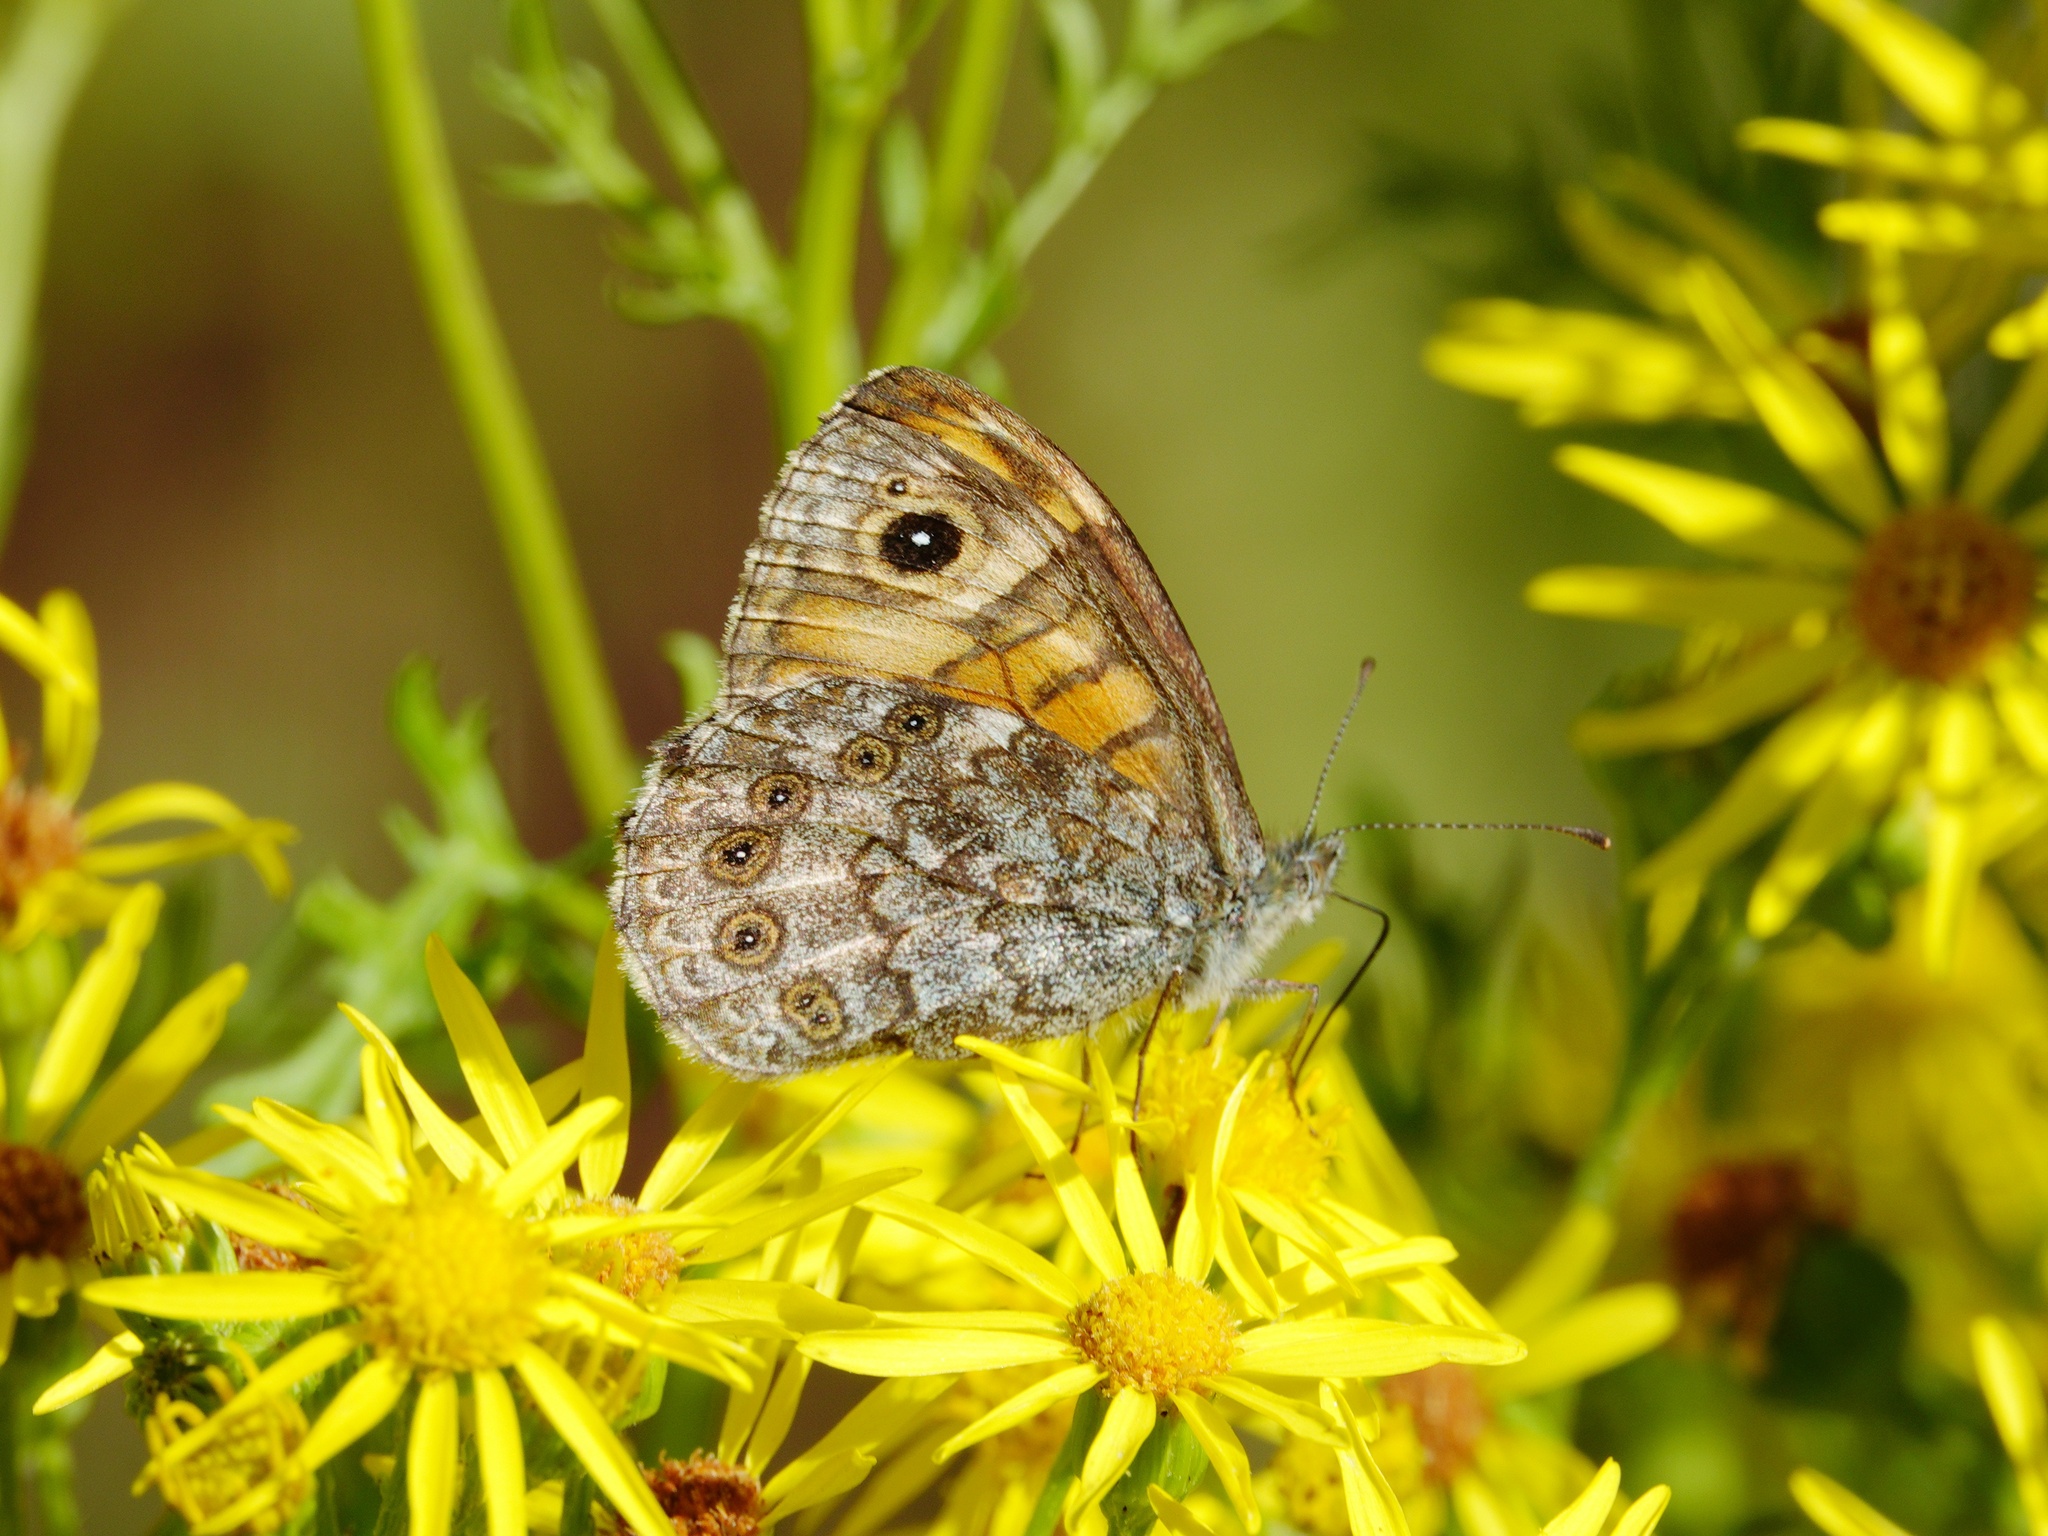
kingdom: Animalia
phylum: Arthropoda
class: Insecta
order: Lepidoptera
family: Nymphalidae
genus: Pararge
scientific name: Pararge Lasiommata megera
